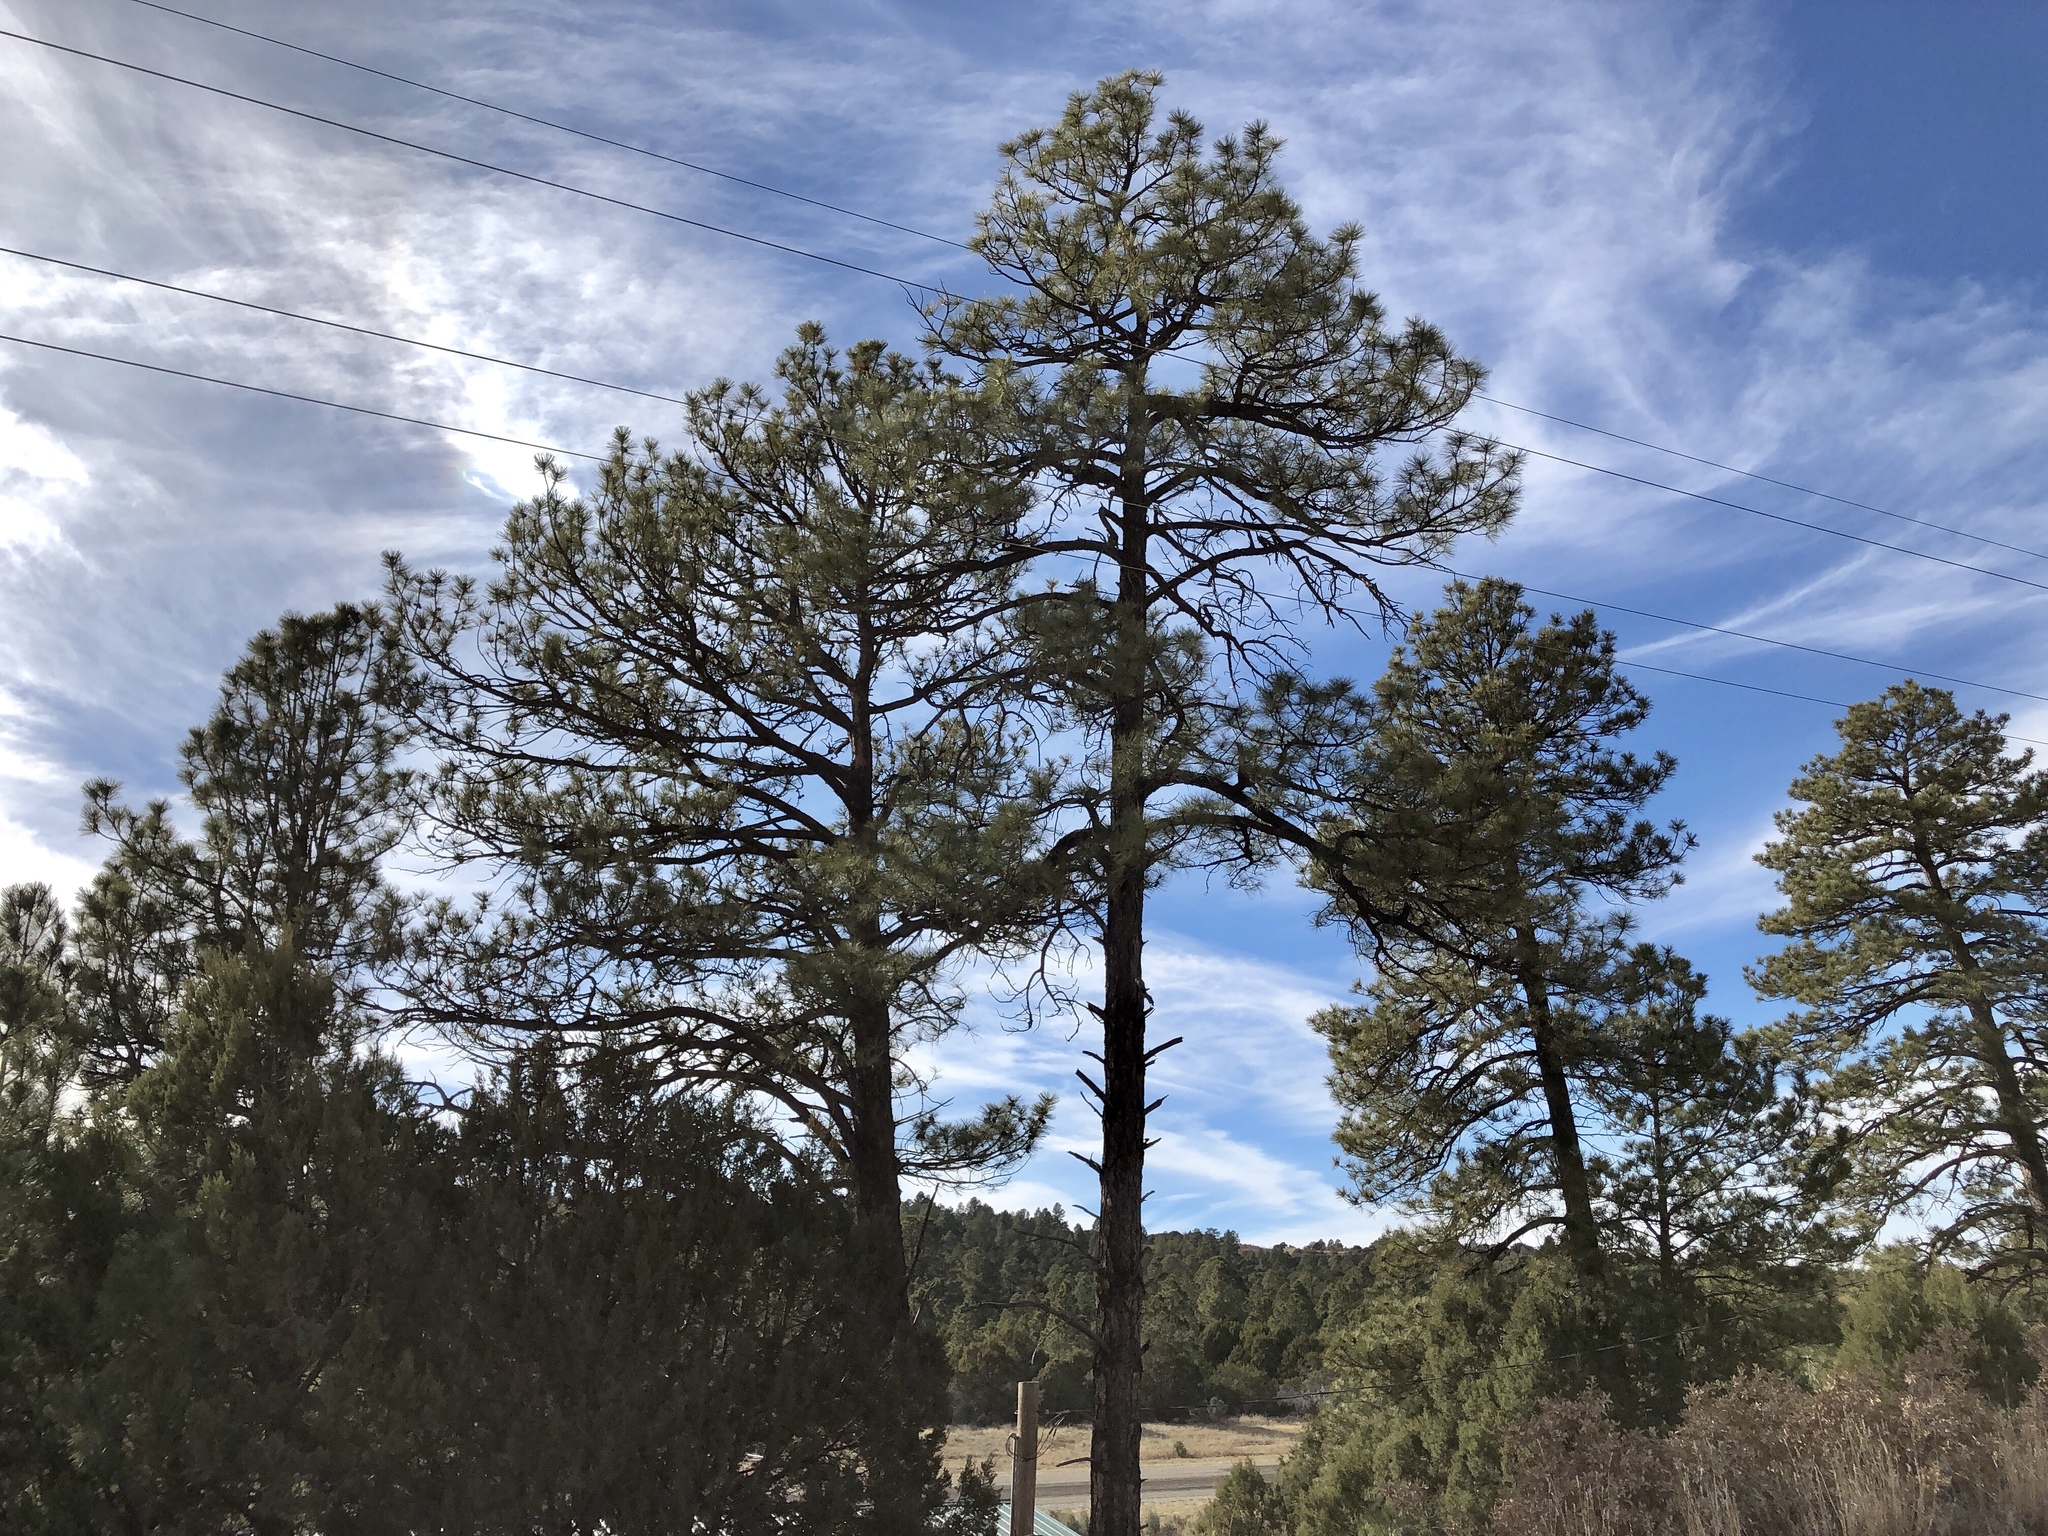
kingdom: Plantae
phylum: Tracheophyta
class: Pinopsida
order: Pinales
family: Pinaceae
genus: Pinus
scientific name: Pinus ponderosa
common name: Western yellow-pine
